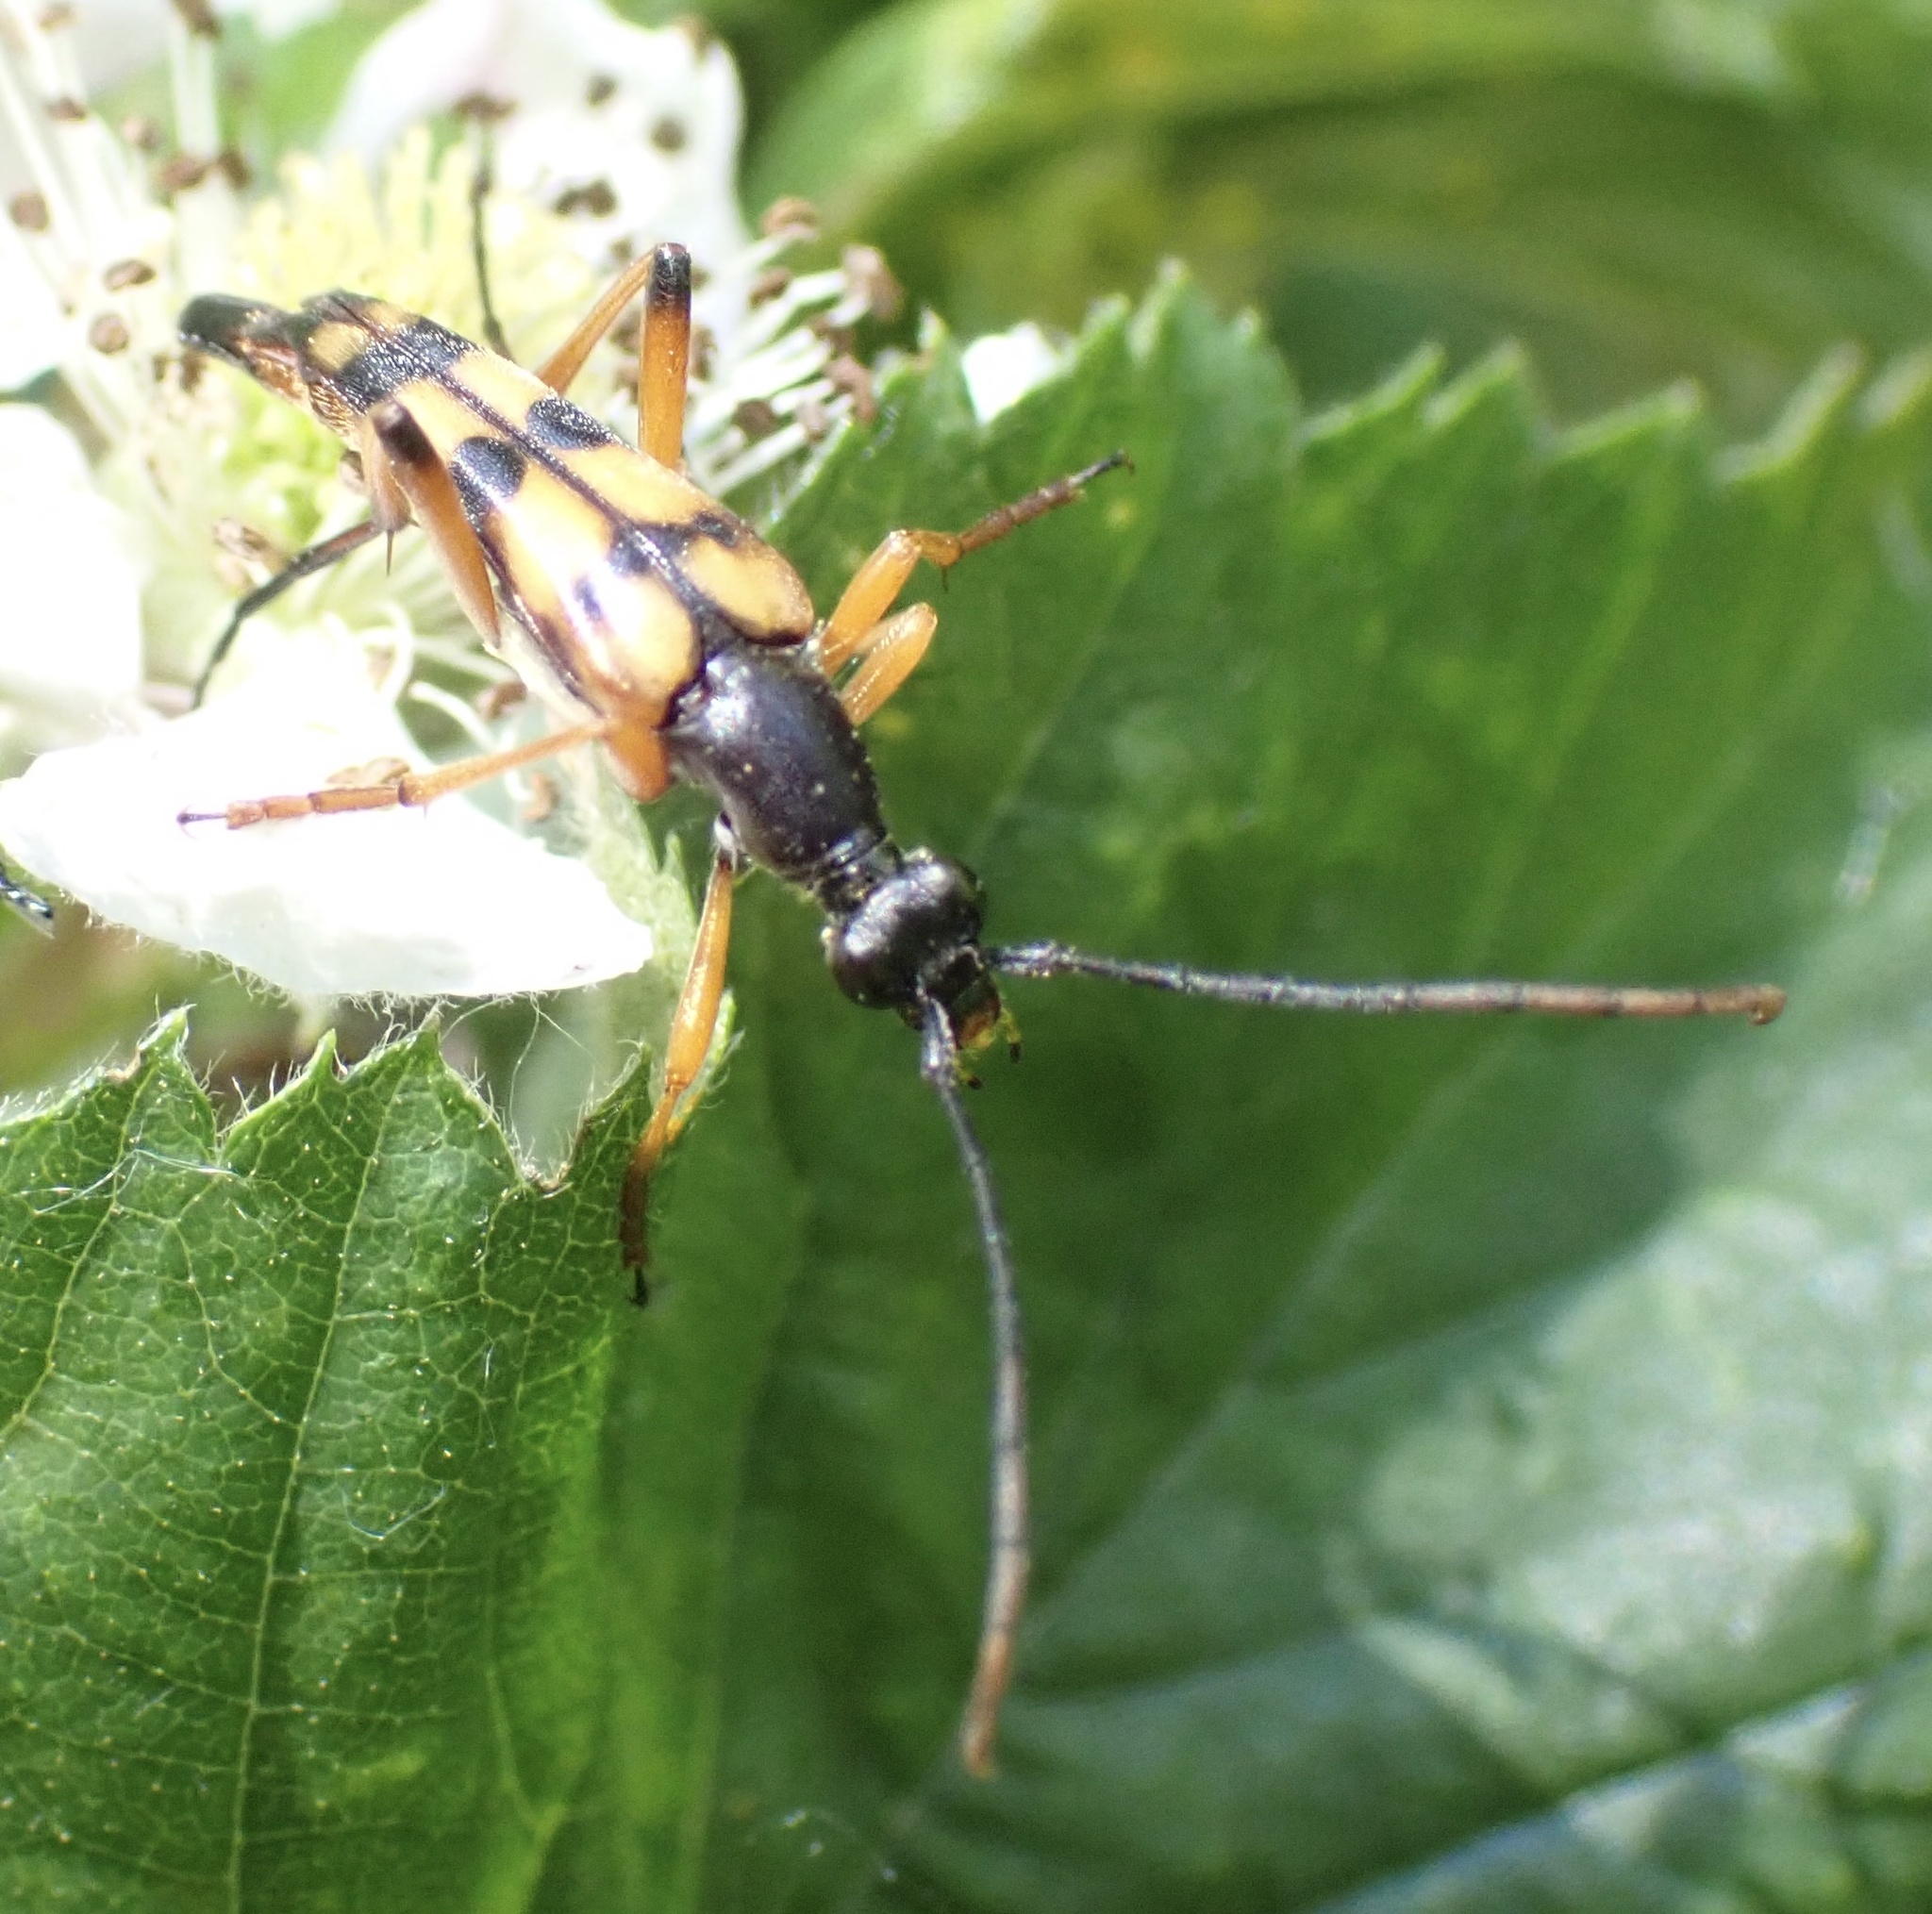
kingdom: Animalia
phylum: Arthropoda
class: Insecta
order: Coleoptera
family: Cerambycidae
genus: Strangalia
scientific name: Strangalia attenuata
